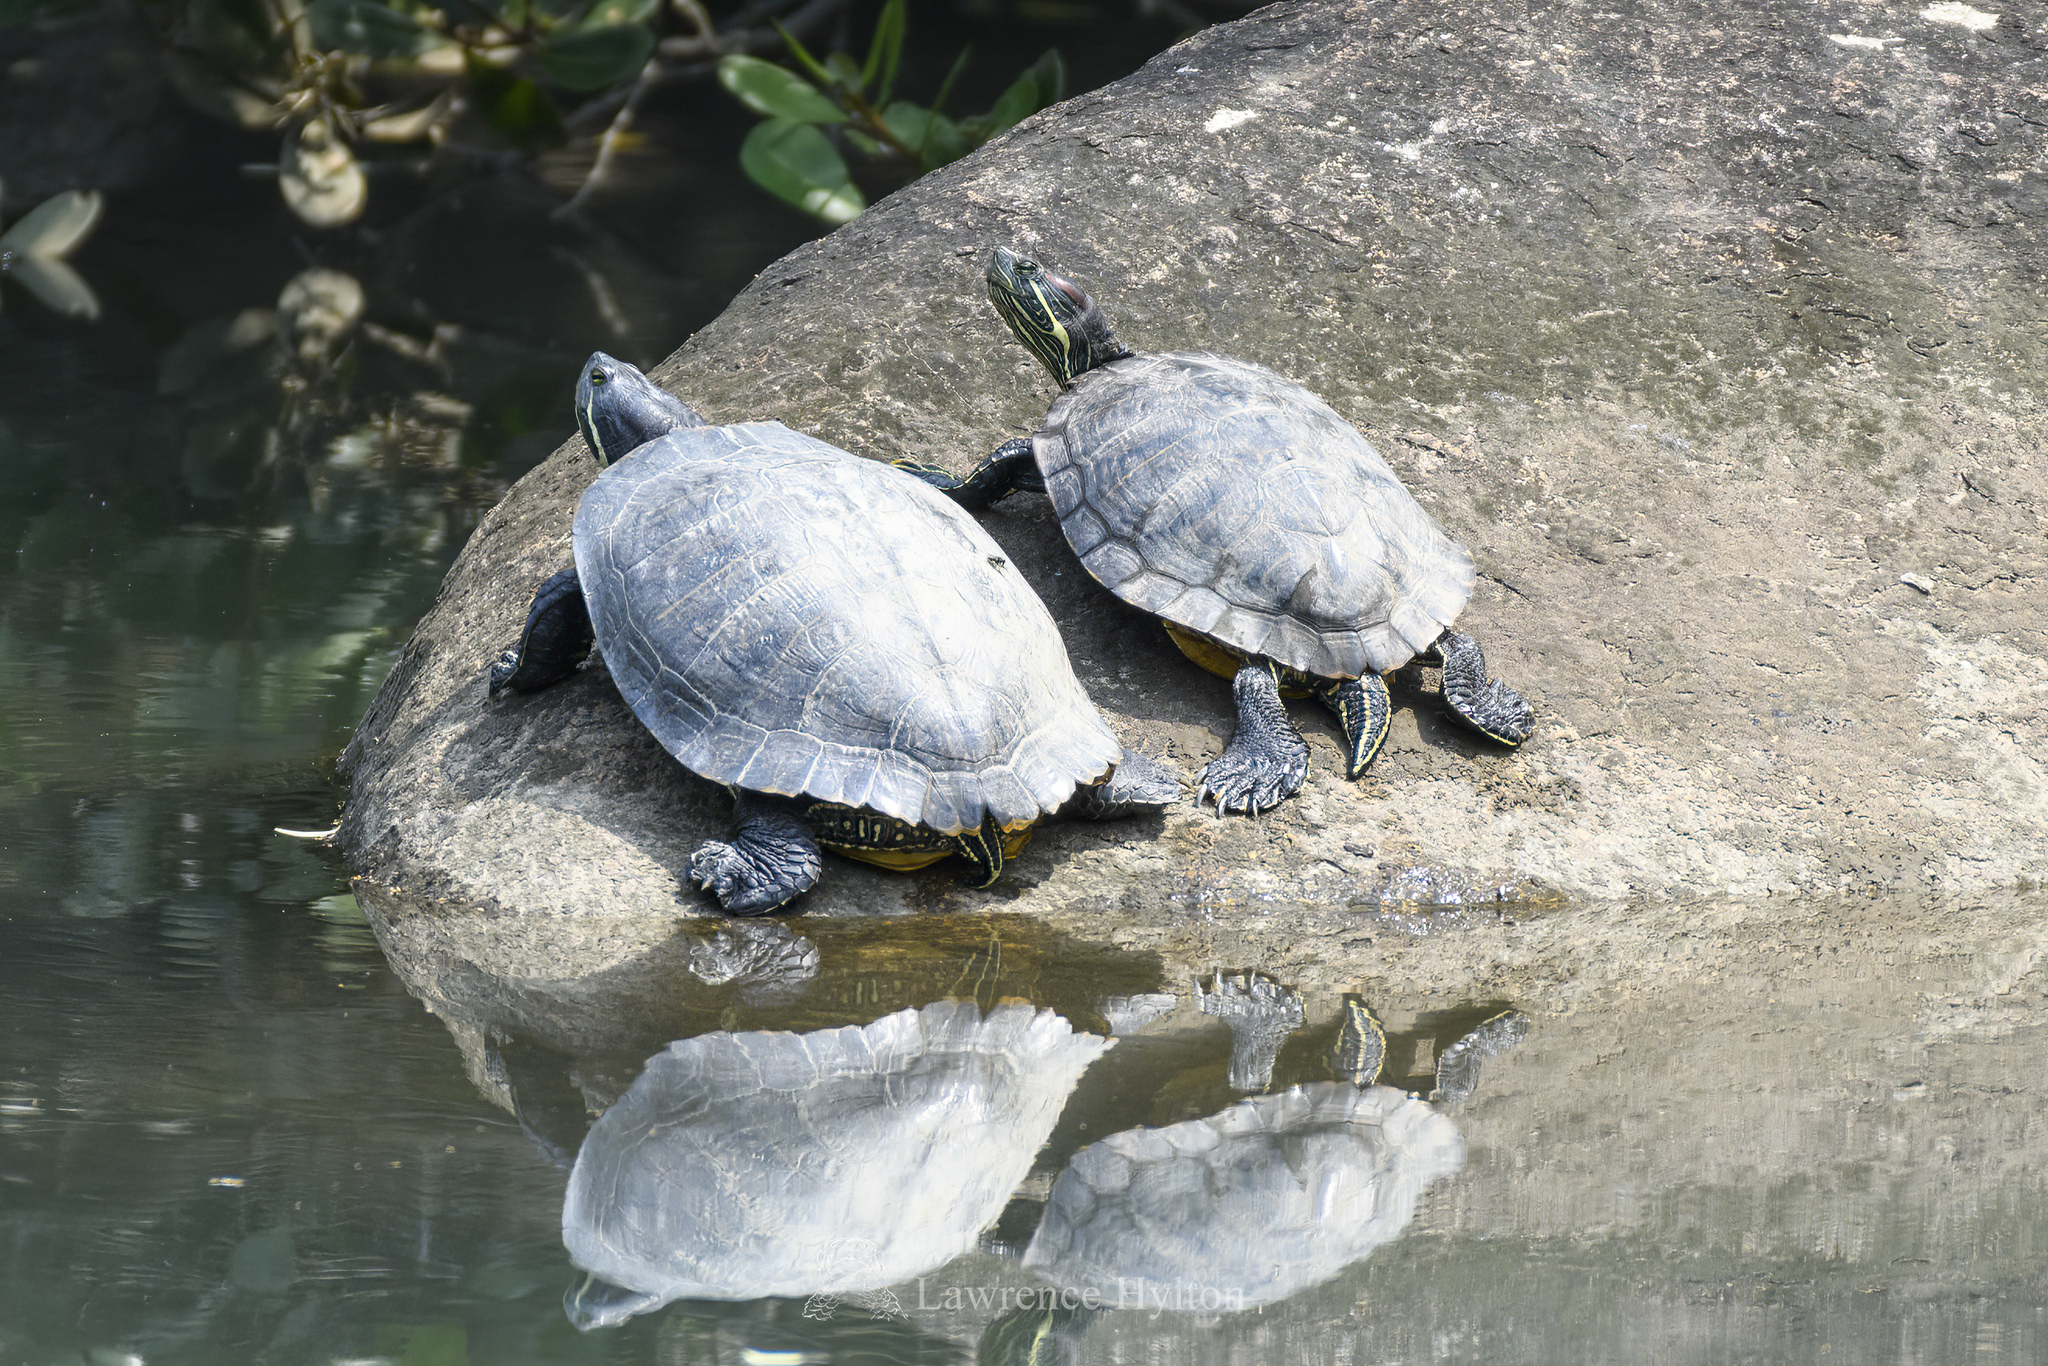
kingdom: Animalia
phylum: Chordata
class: Testudines
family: Emydidae
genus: Trachemys
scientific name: Trachemys scripta
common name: Slider
